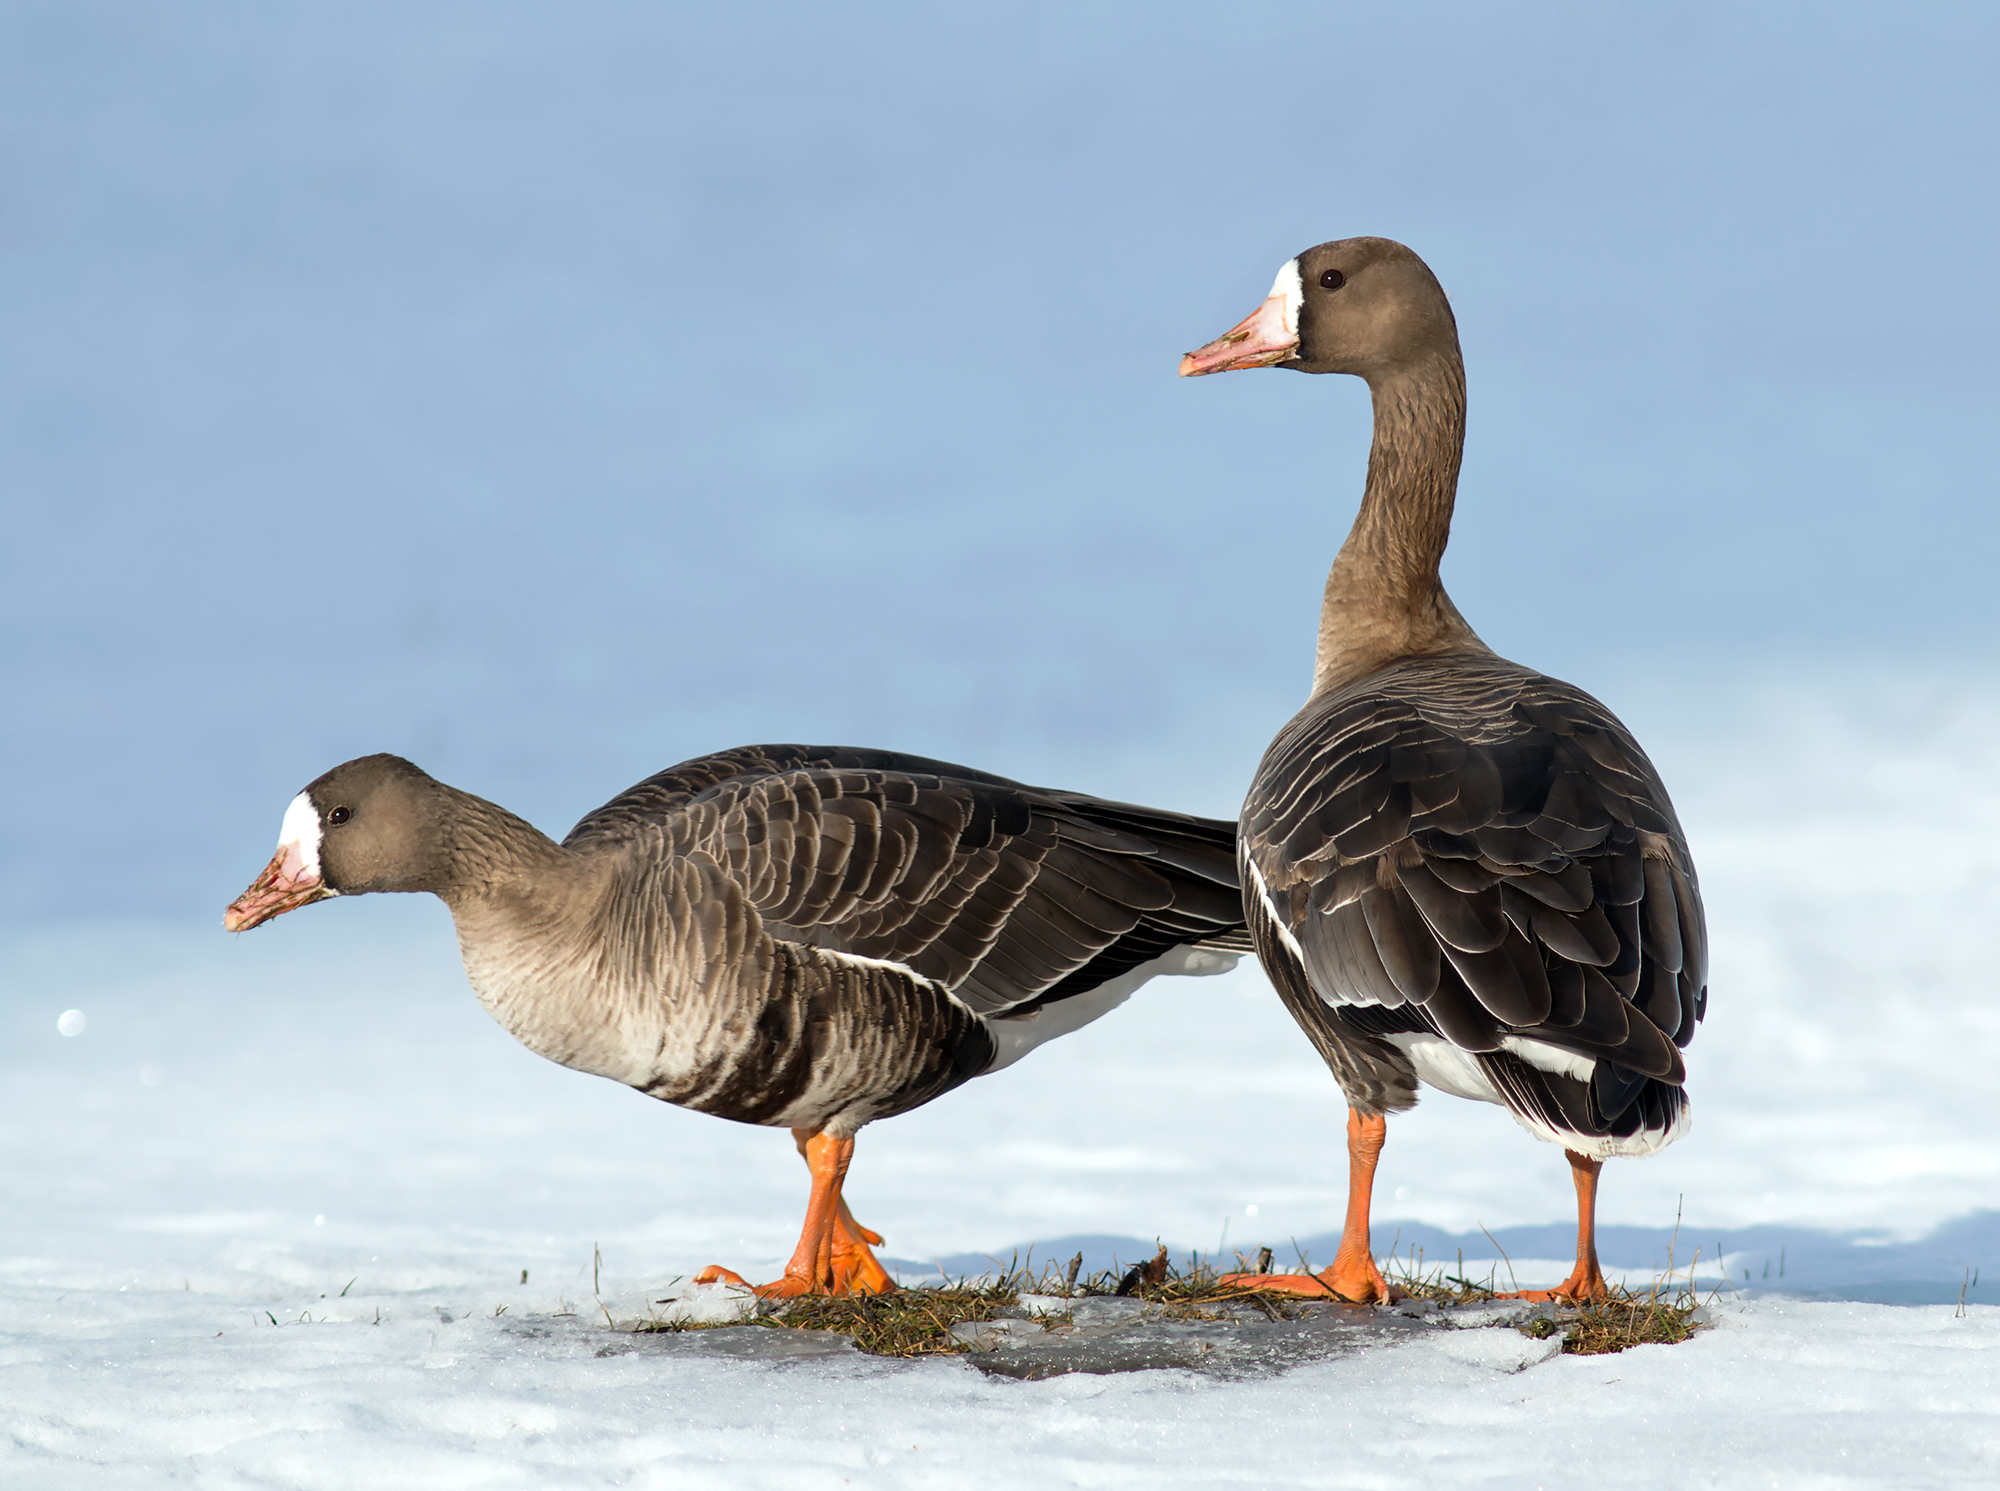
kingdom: Animalia
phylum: Chordata
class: Aves
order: Anseriformes
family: Anatidae
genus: Anser
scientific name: Anser albifrons
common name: Greater white-fronted goose
